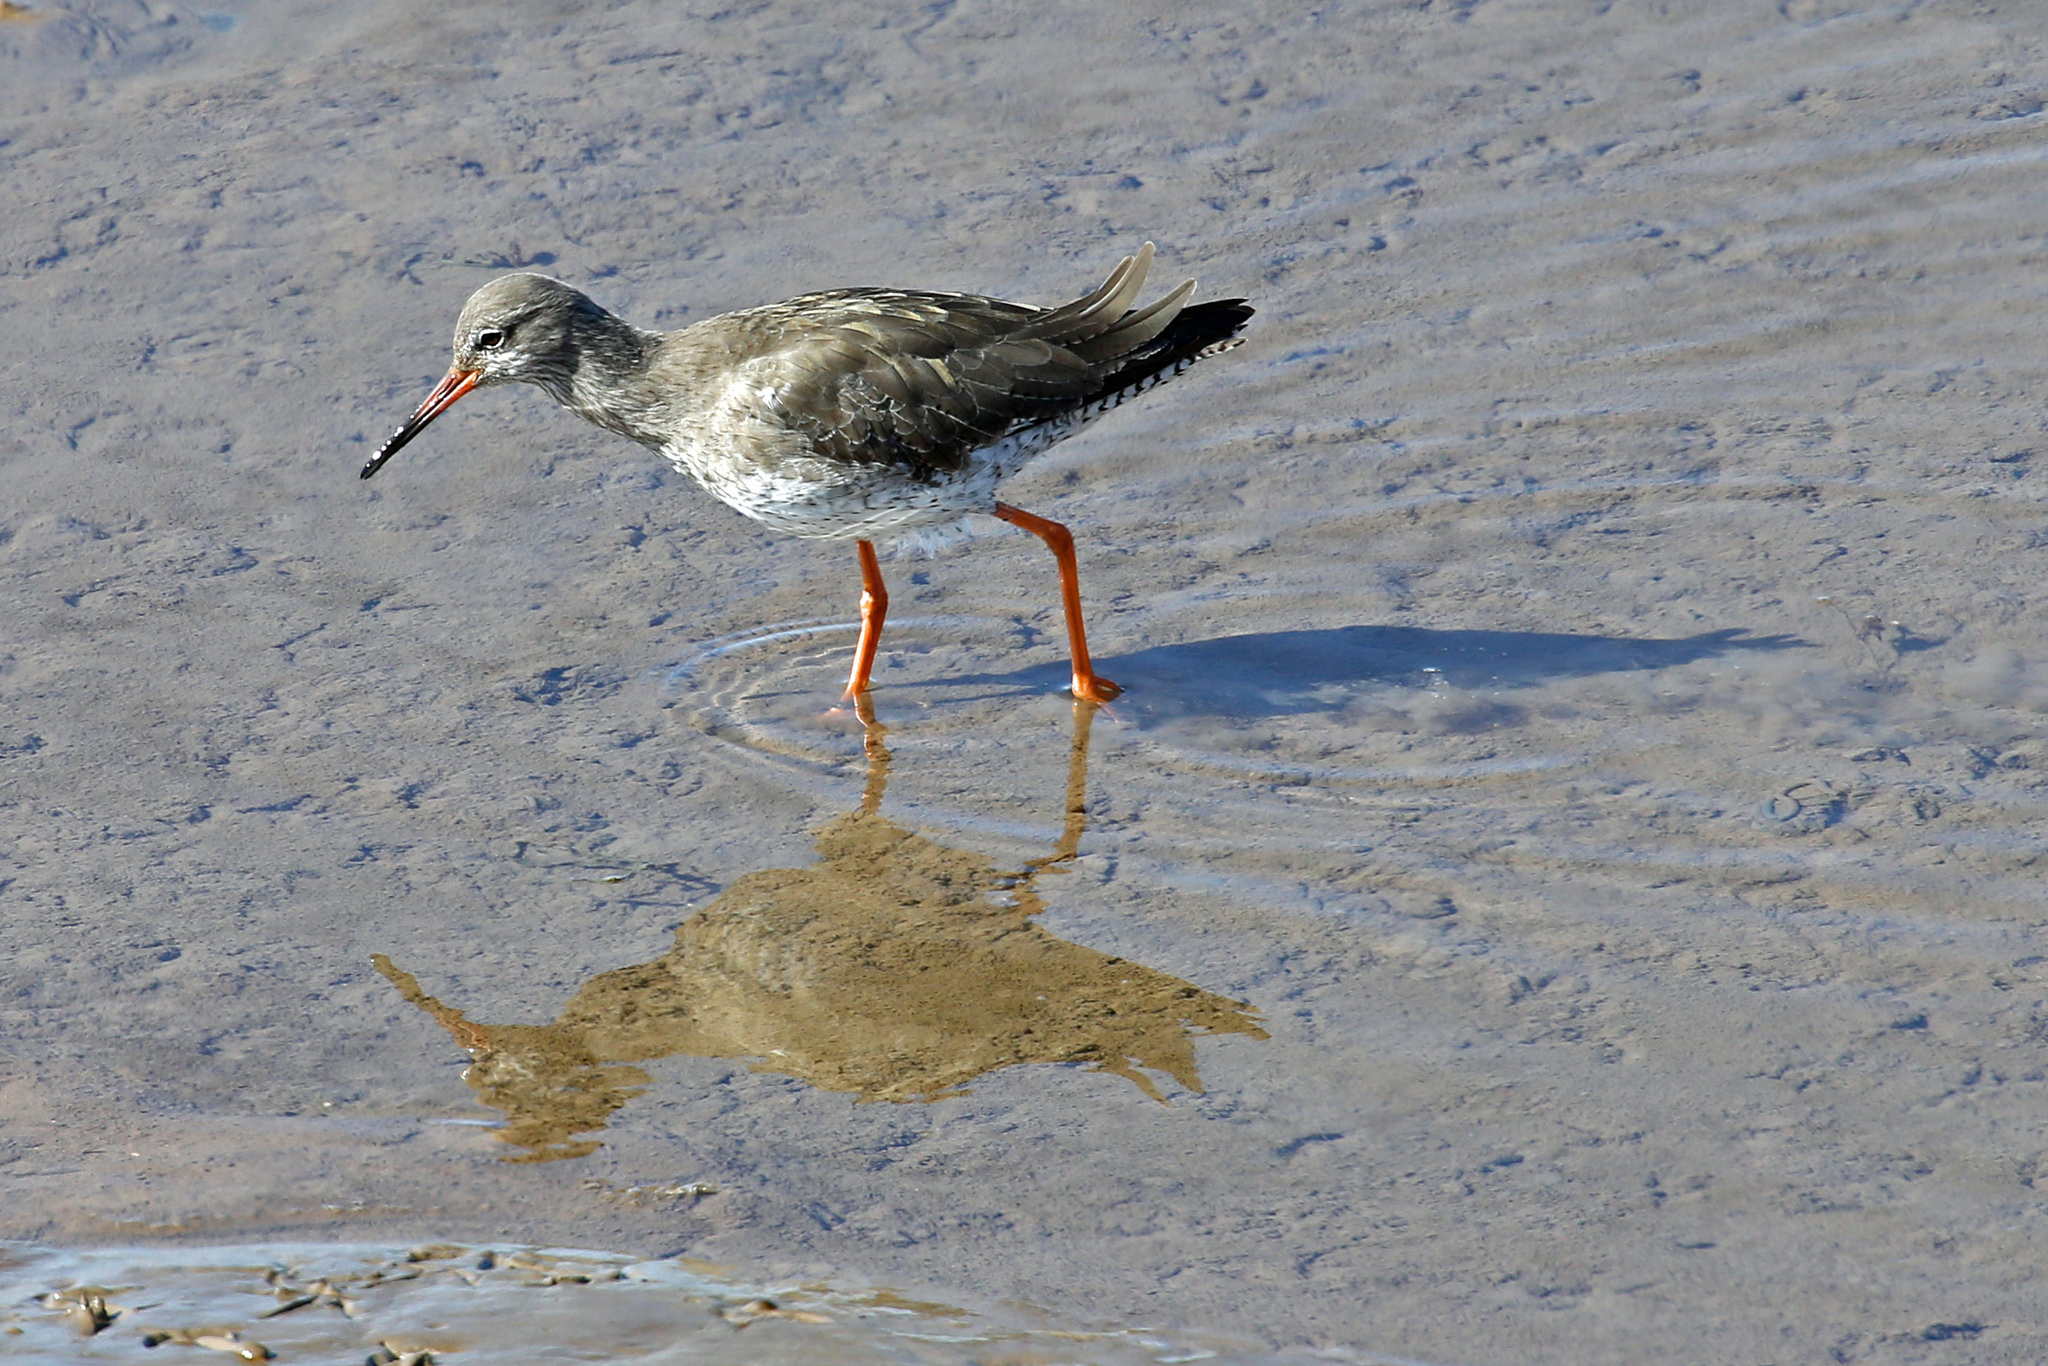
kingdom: Animalia
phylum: Chordata
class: Aves
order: Charadriiformes
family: Scolopacidae
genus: Tringa
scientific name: Tringa totanus
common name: Common redshank
